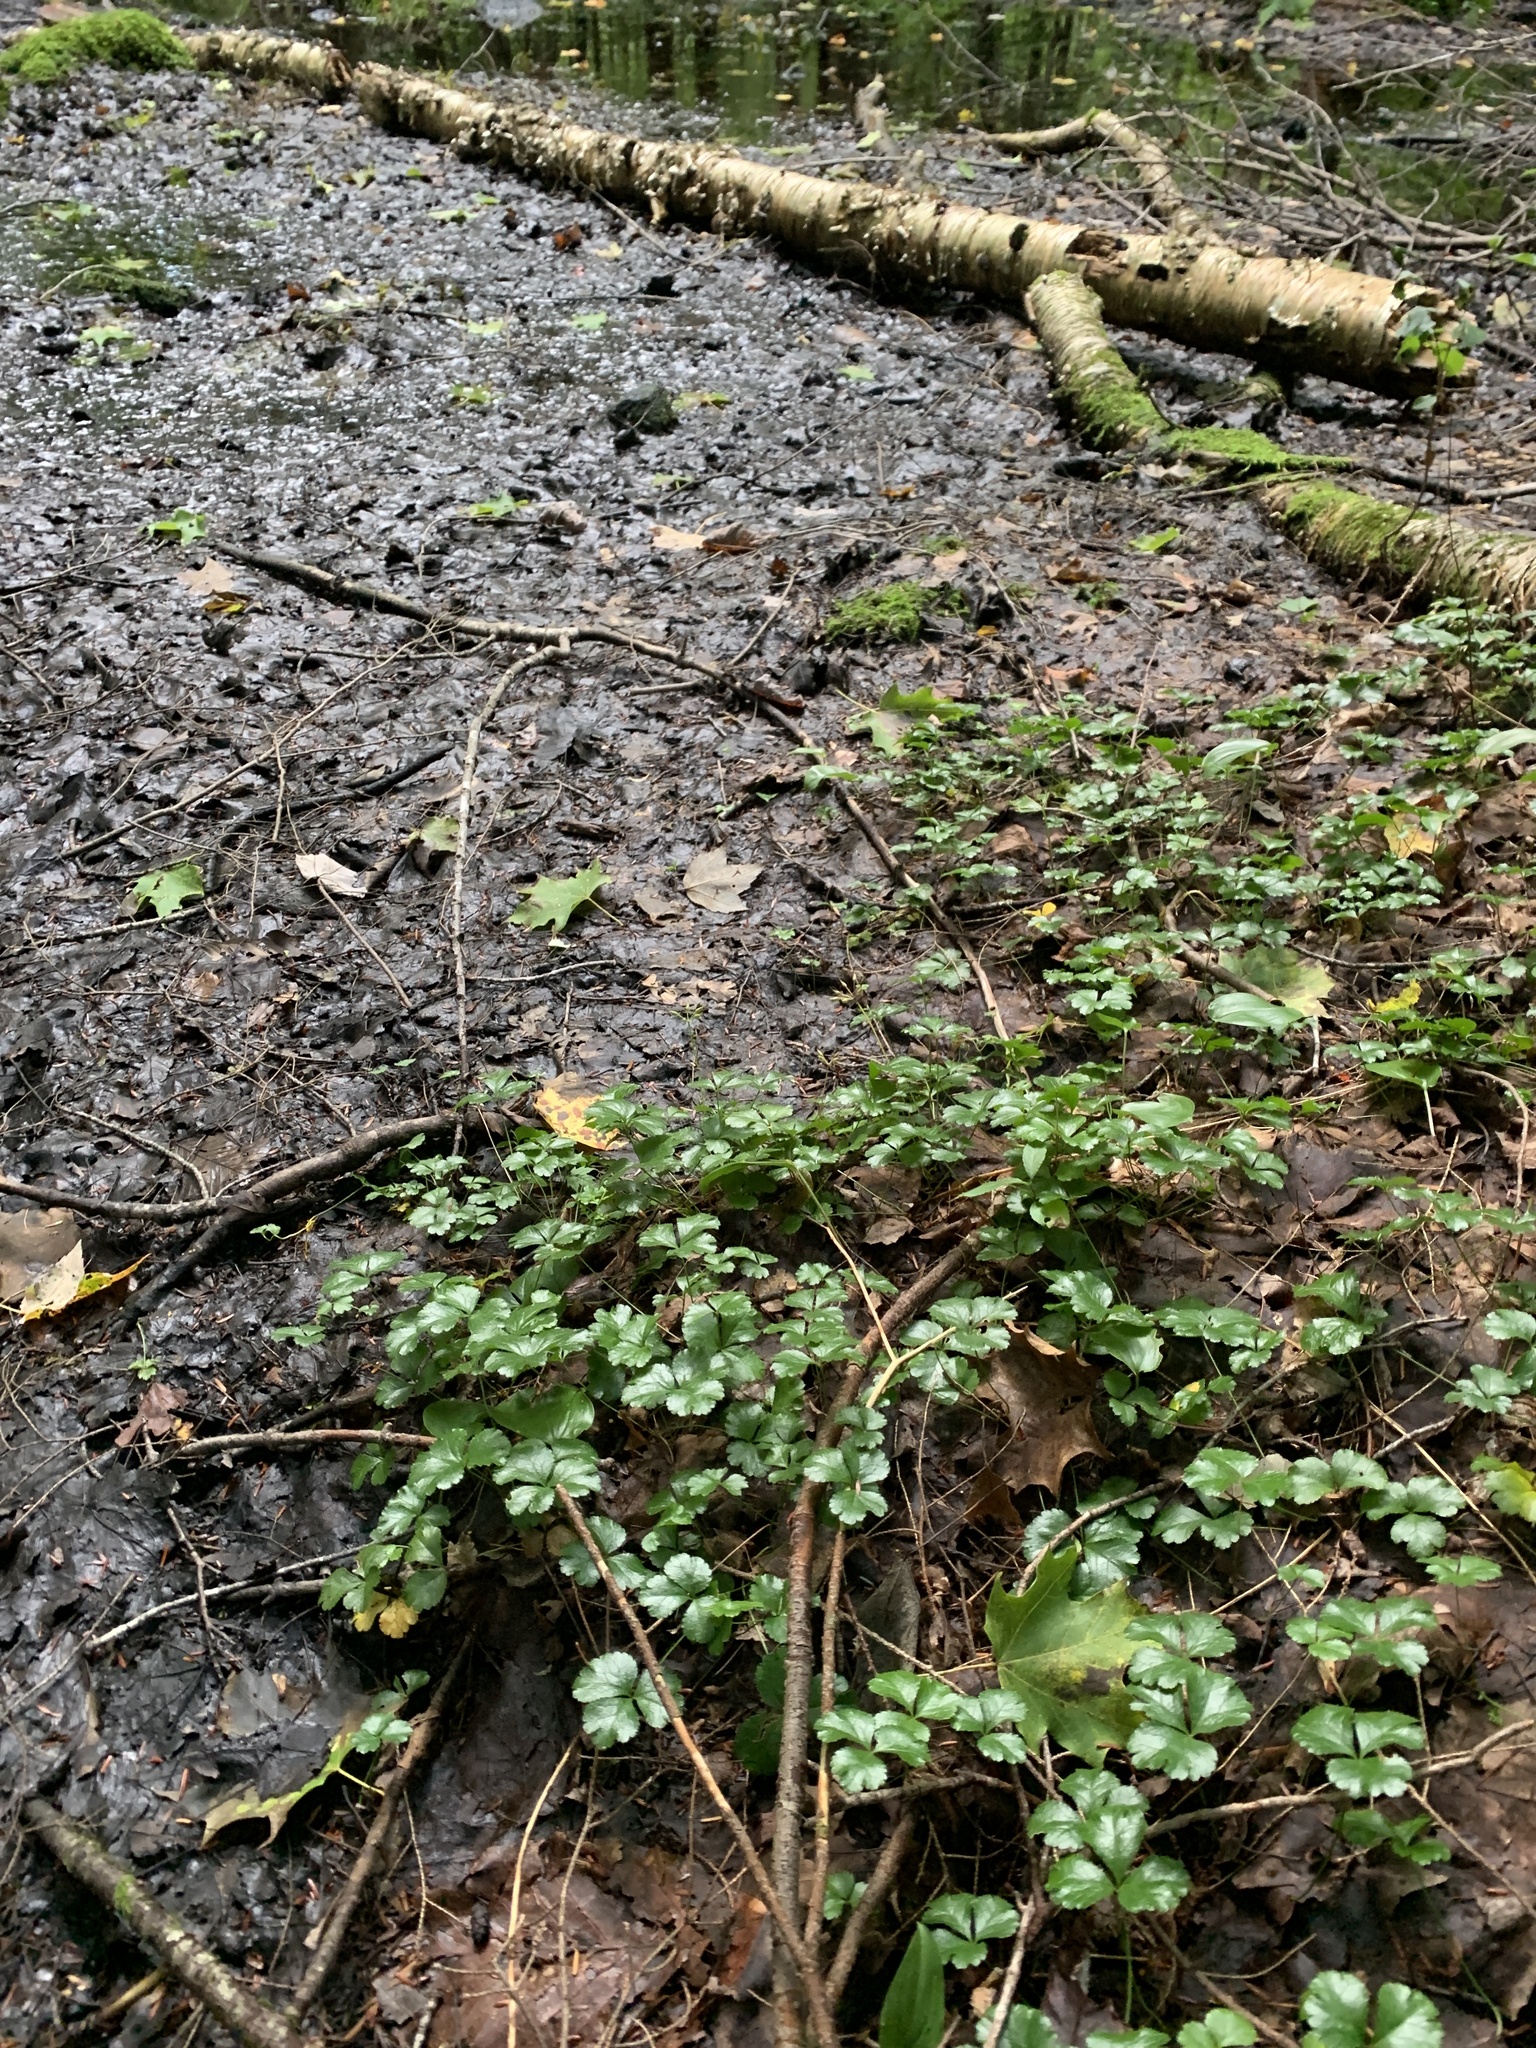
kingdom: Plantae
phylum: Tracheophyta
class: Magnoliopsida
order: Ranunculales
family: Ranunculaceae
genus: Coptis
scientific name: Coptis trifolia
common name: Canker-root
